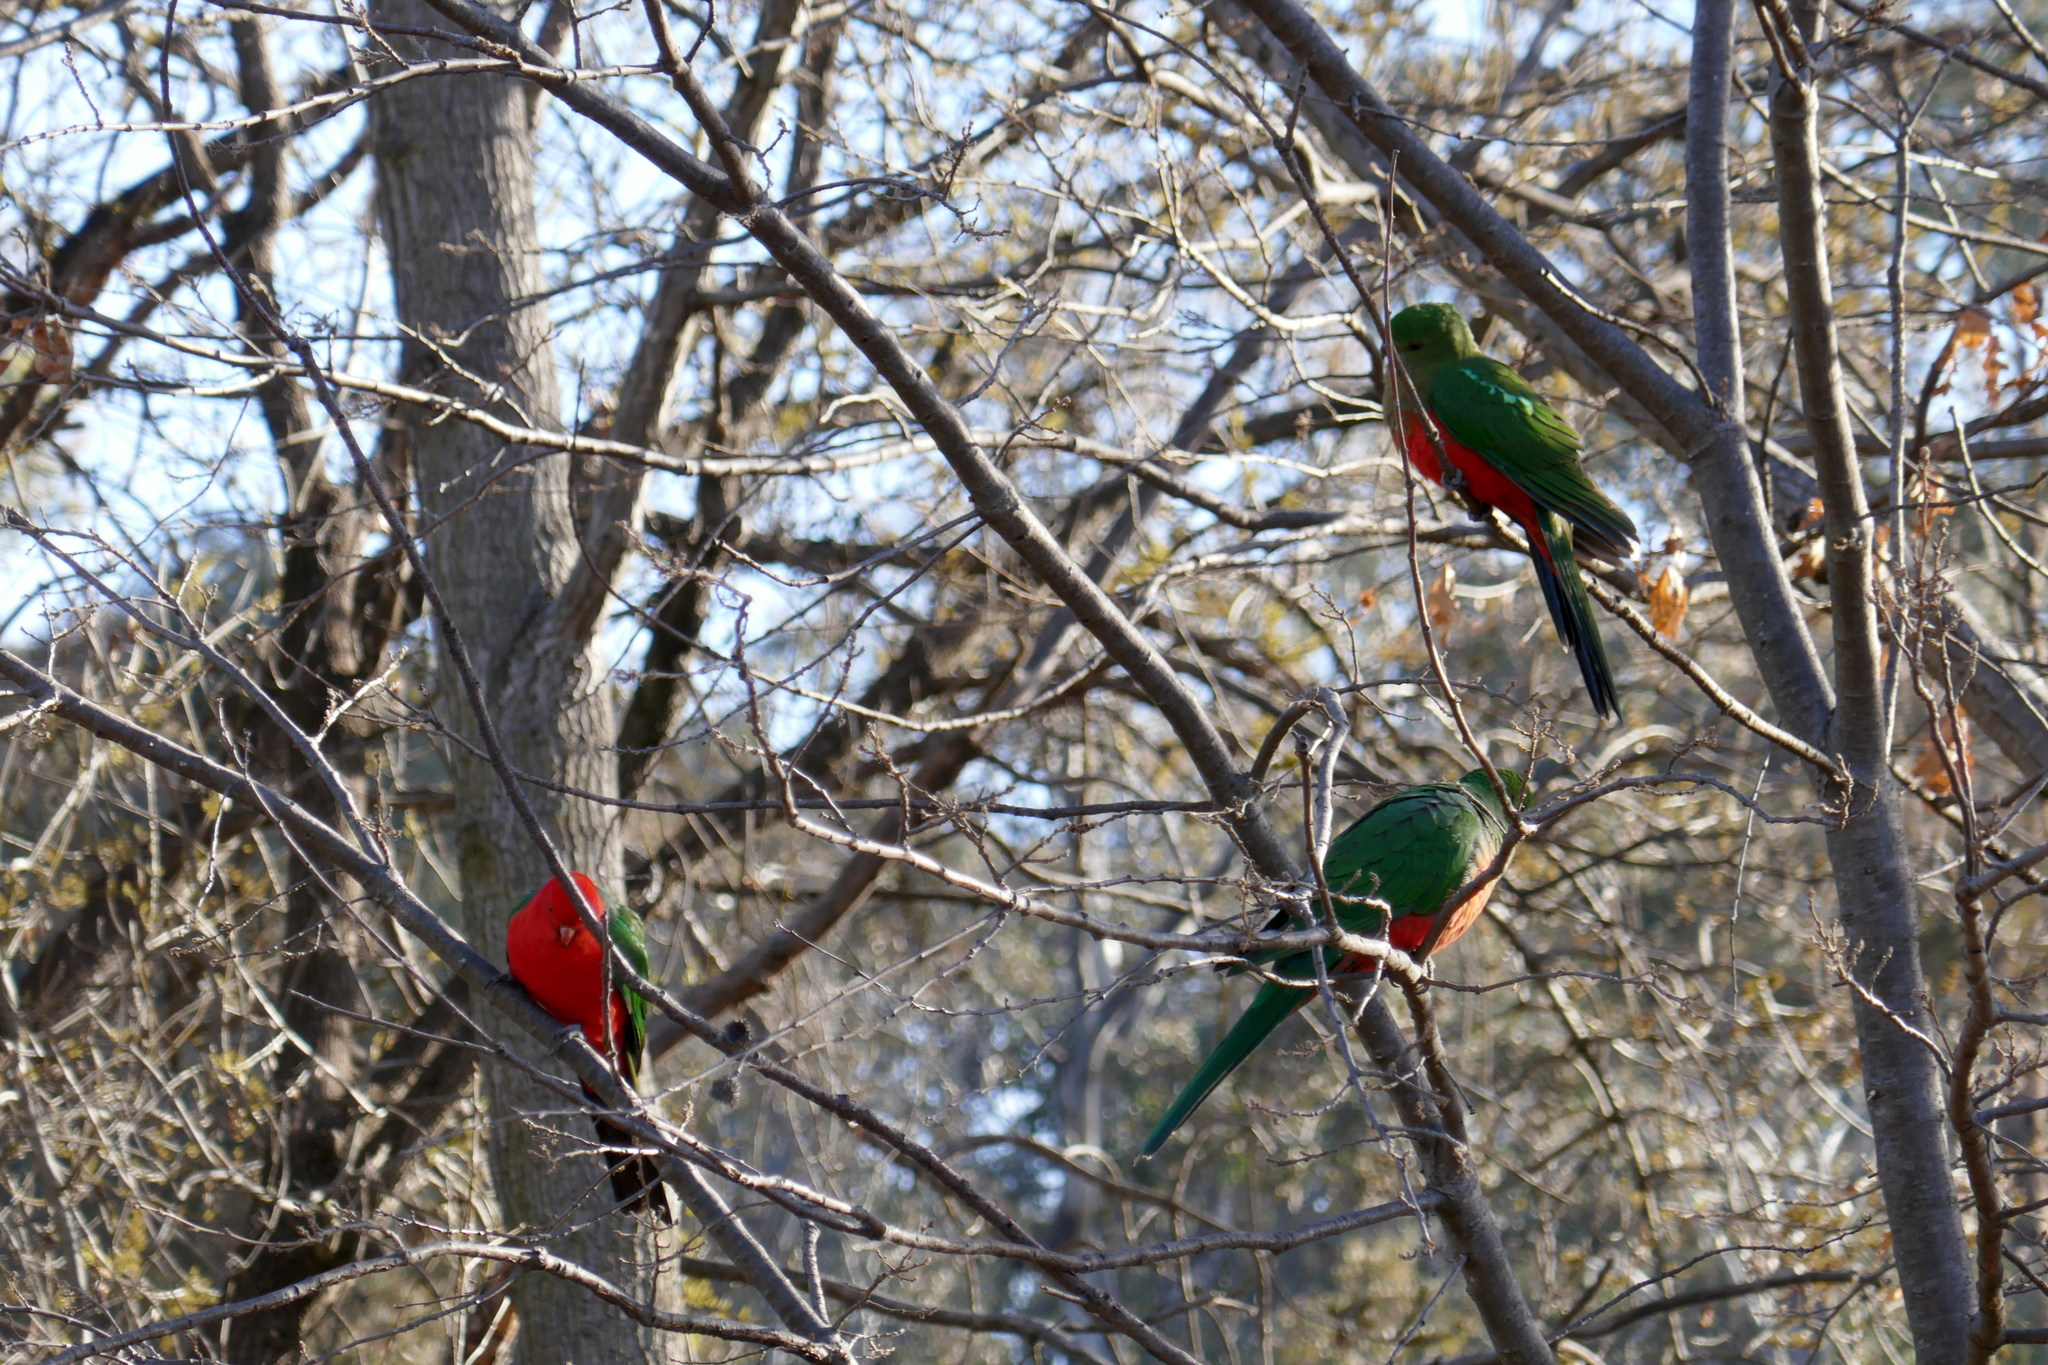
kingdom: Animalia
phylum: Chordata
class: Aves
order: Psittaciformes
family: Psittacidae
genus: Alisterus
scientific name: Alisterus scapularis
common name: Australian king parrot
